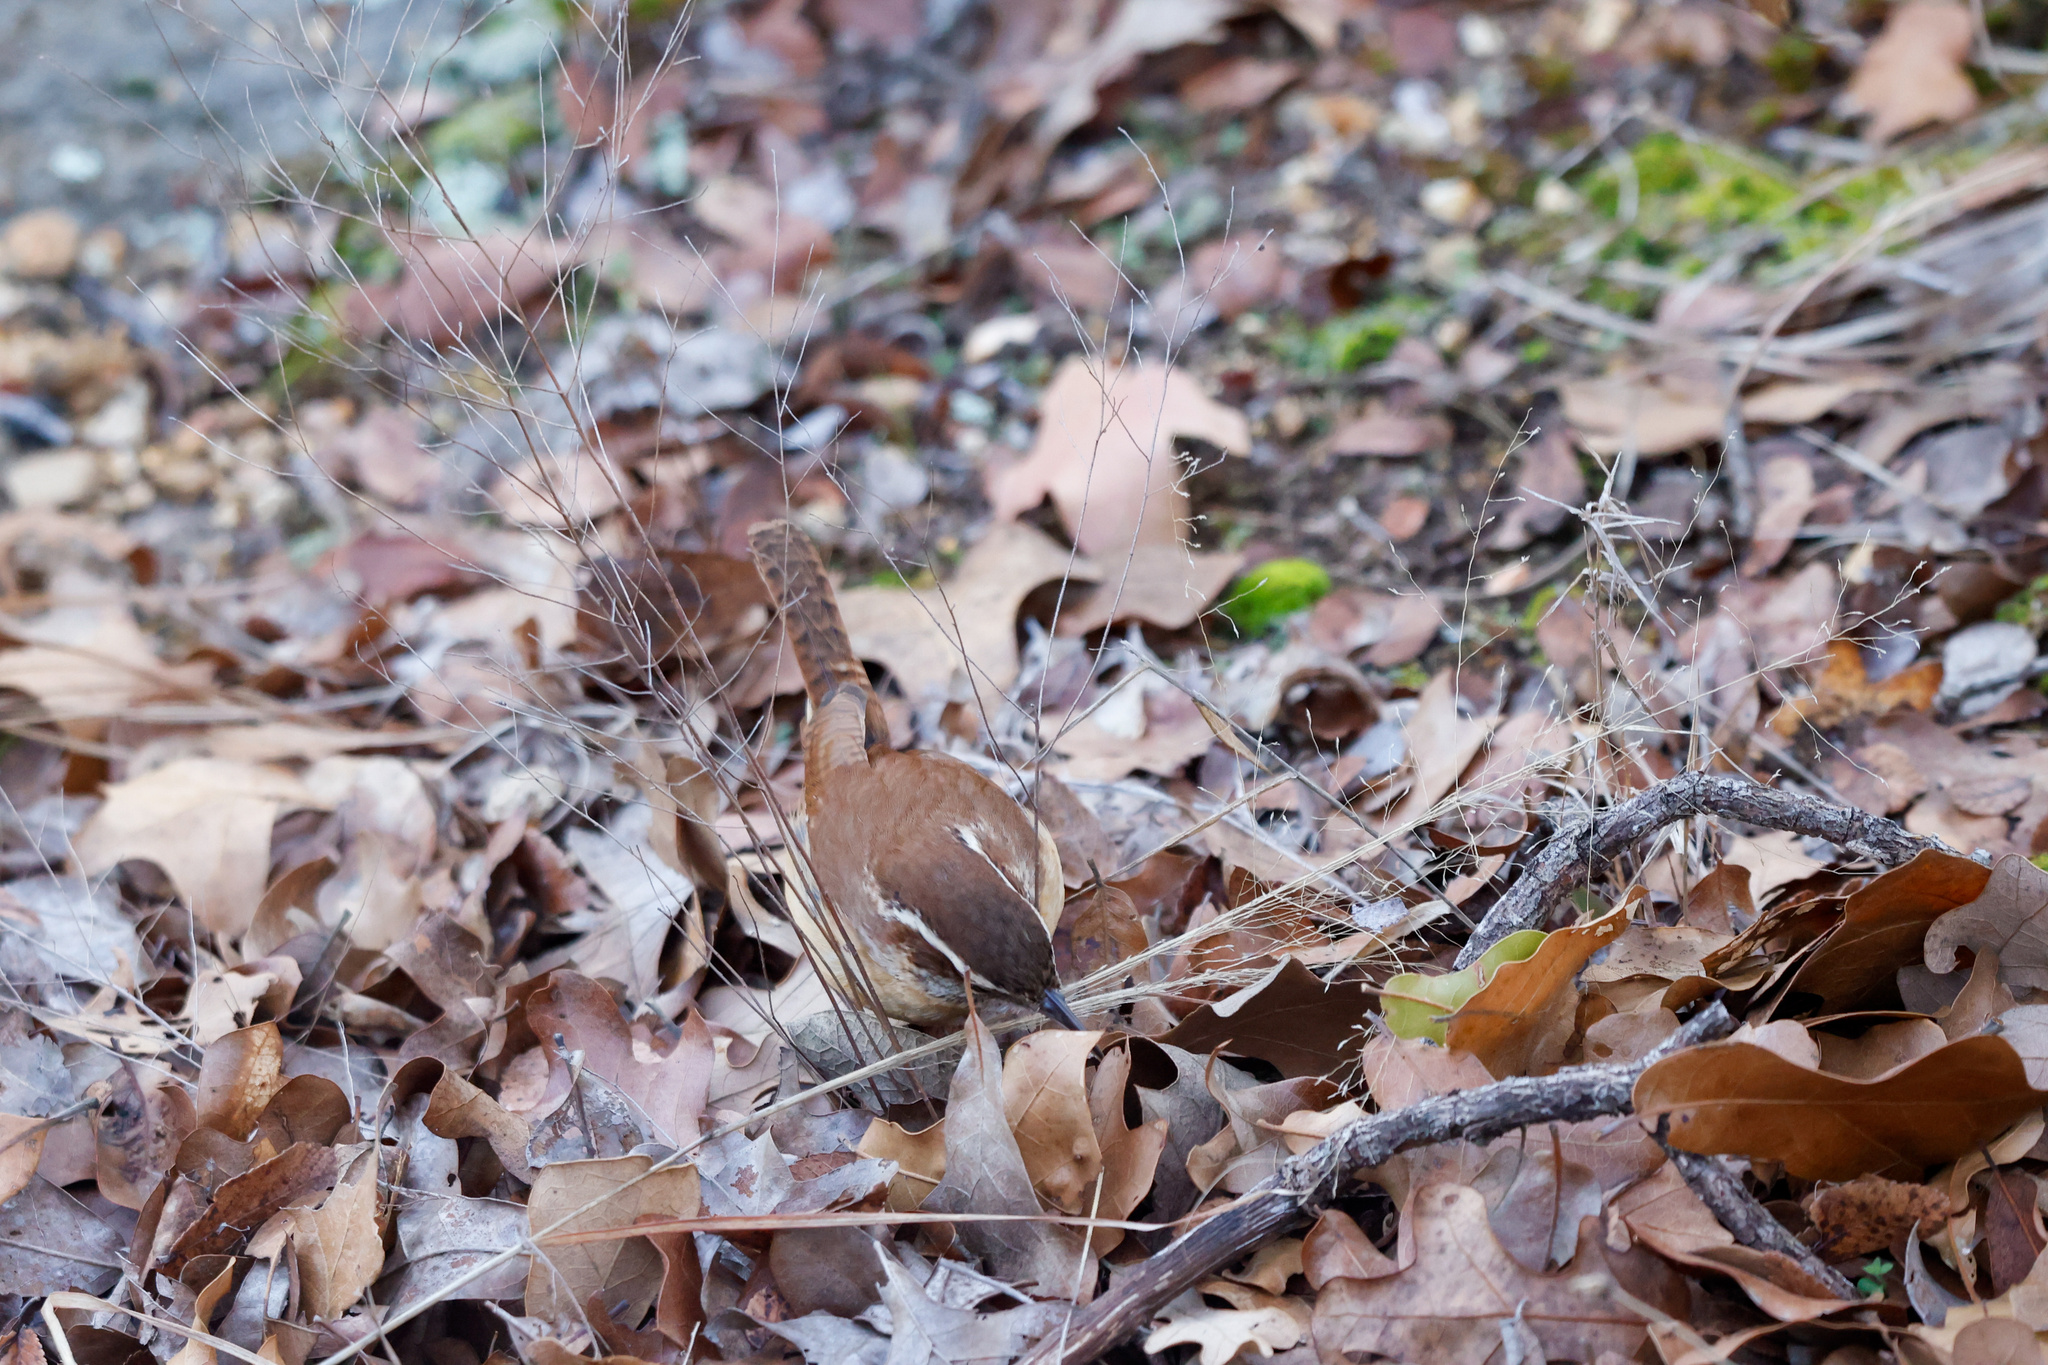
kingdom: Animalia
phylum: Chordata
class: Aves
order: Passeriformes
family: Troglodytidae
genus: Thryothorus
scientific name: Thryothorus ludovicianus
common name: Carolina wren
